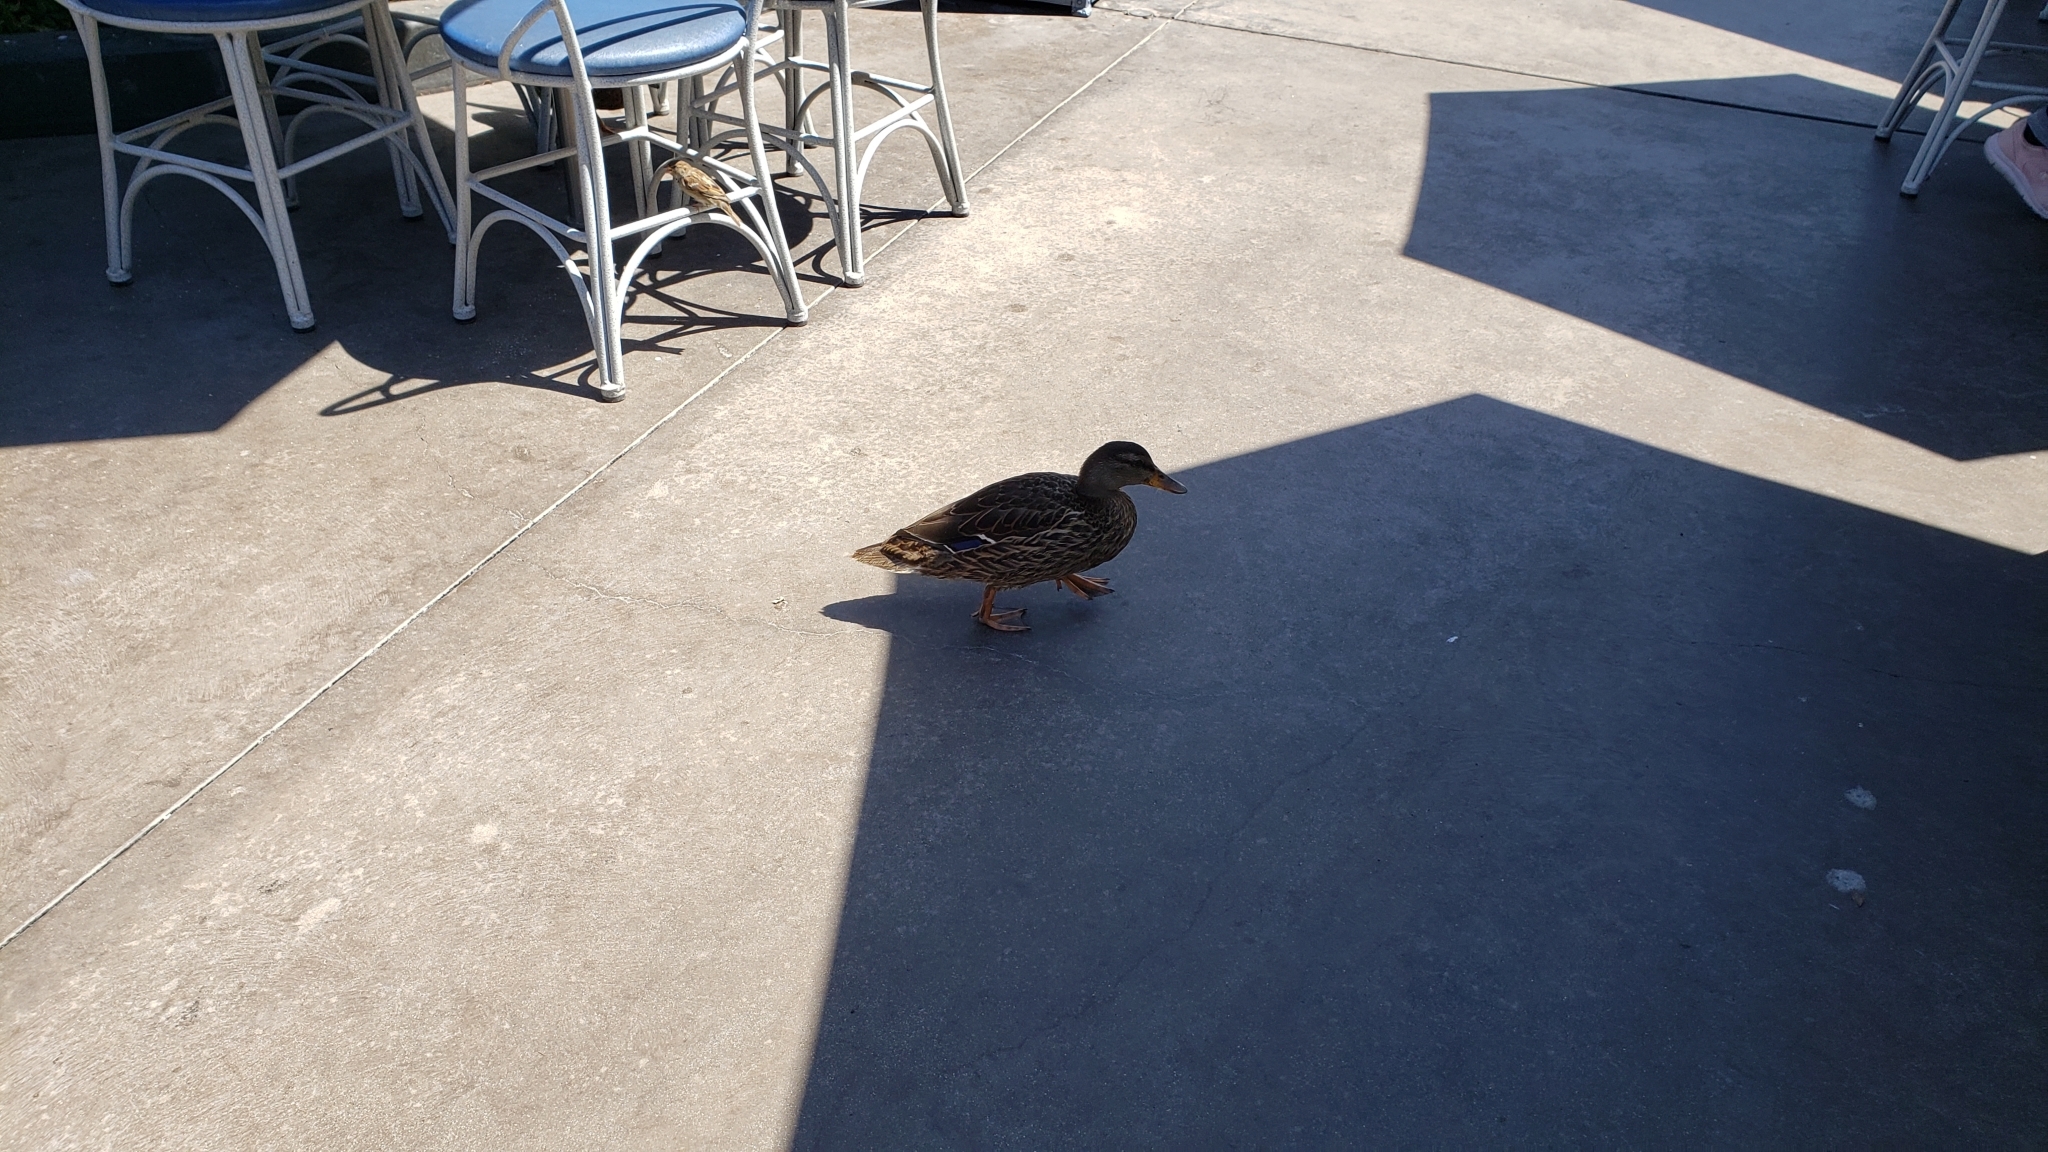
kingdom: Animalia
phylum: Chordata
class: Aves
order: Anseriformes
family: Anatidae
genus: Anas
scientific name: Anas platyrhynchos
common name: Mallard
